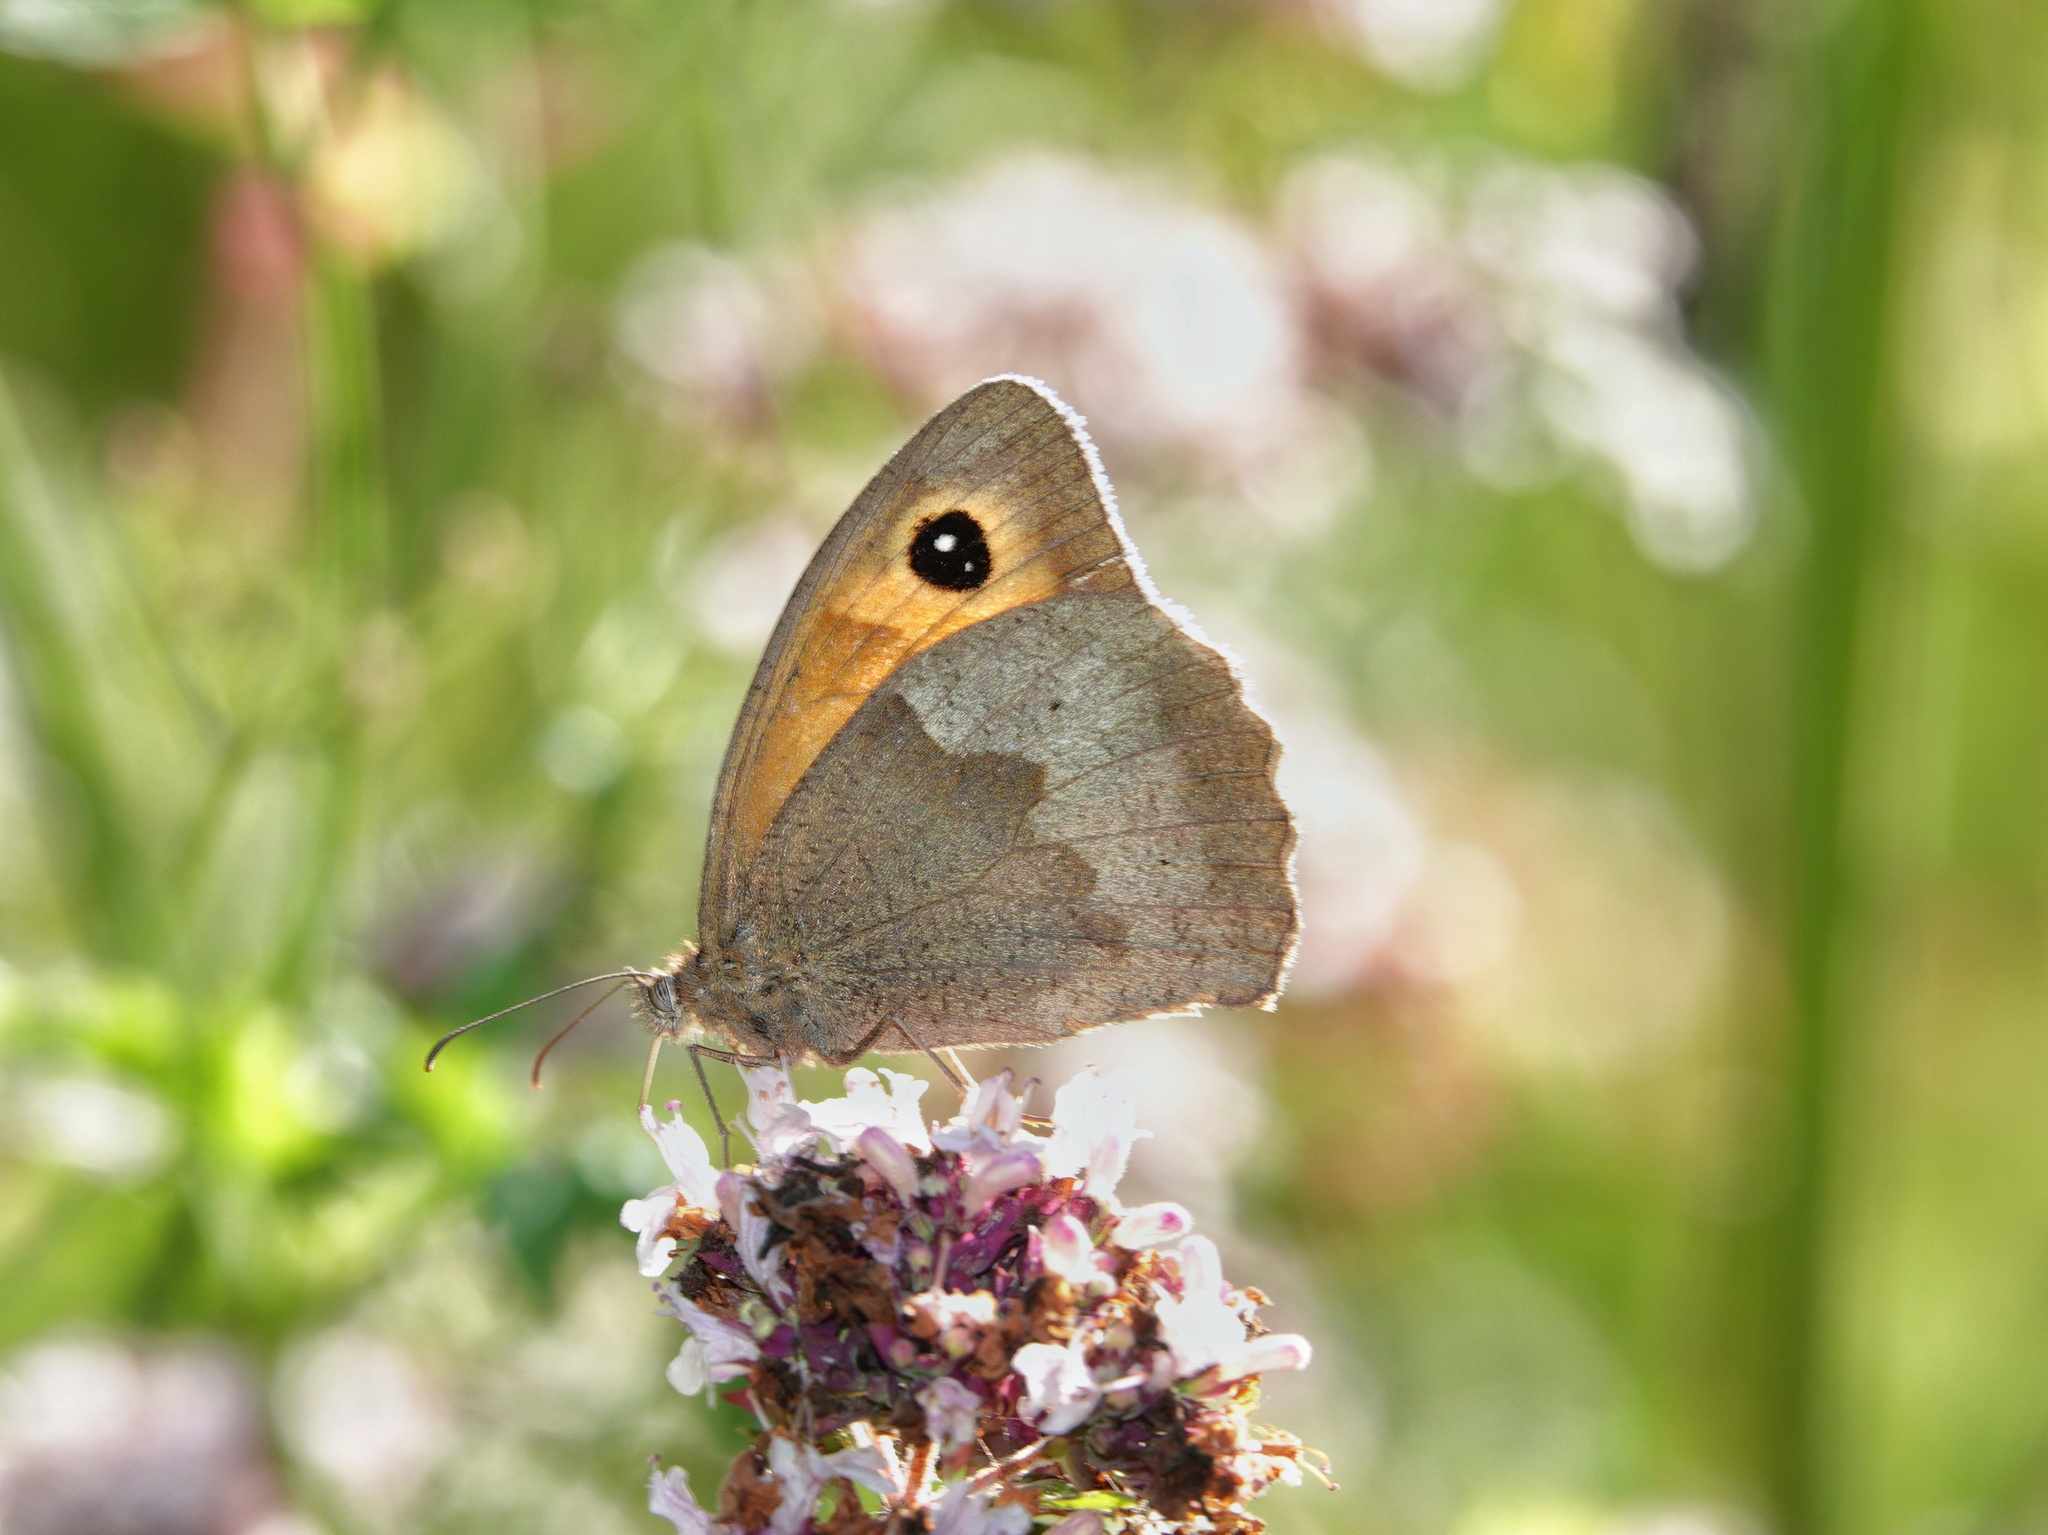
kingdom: Animalia
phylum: Arthropoda
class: Insecta
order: Lepidoptera
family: Nymphalidae
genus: Maniola
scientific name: Maniola jurtina
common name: Meadow brown
